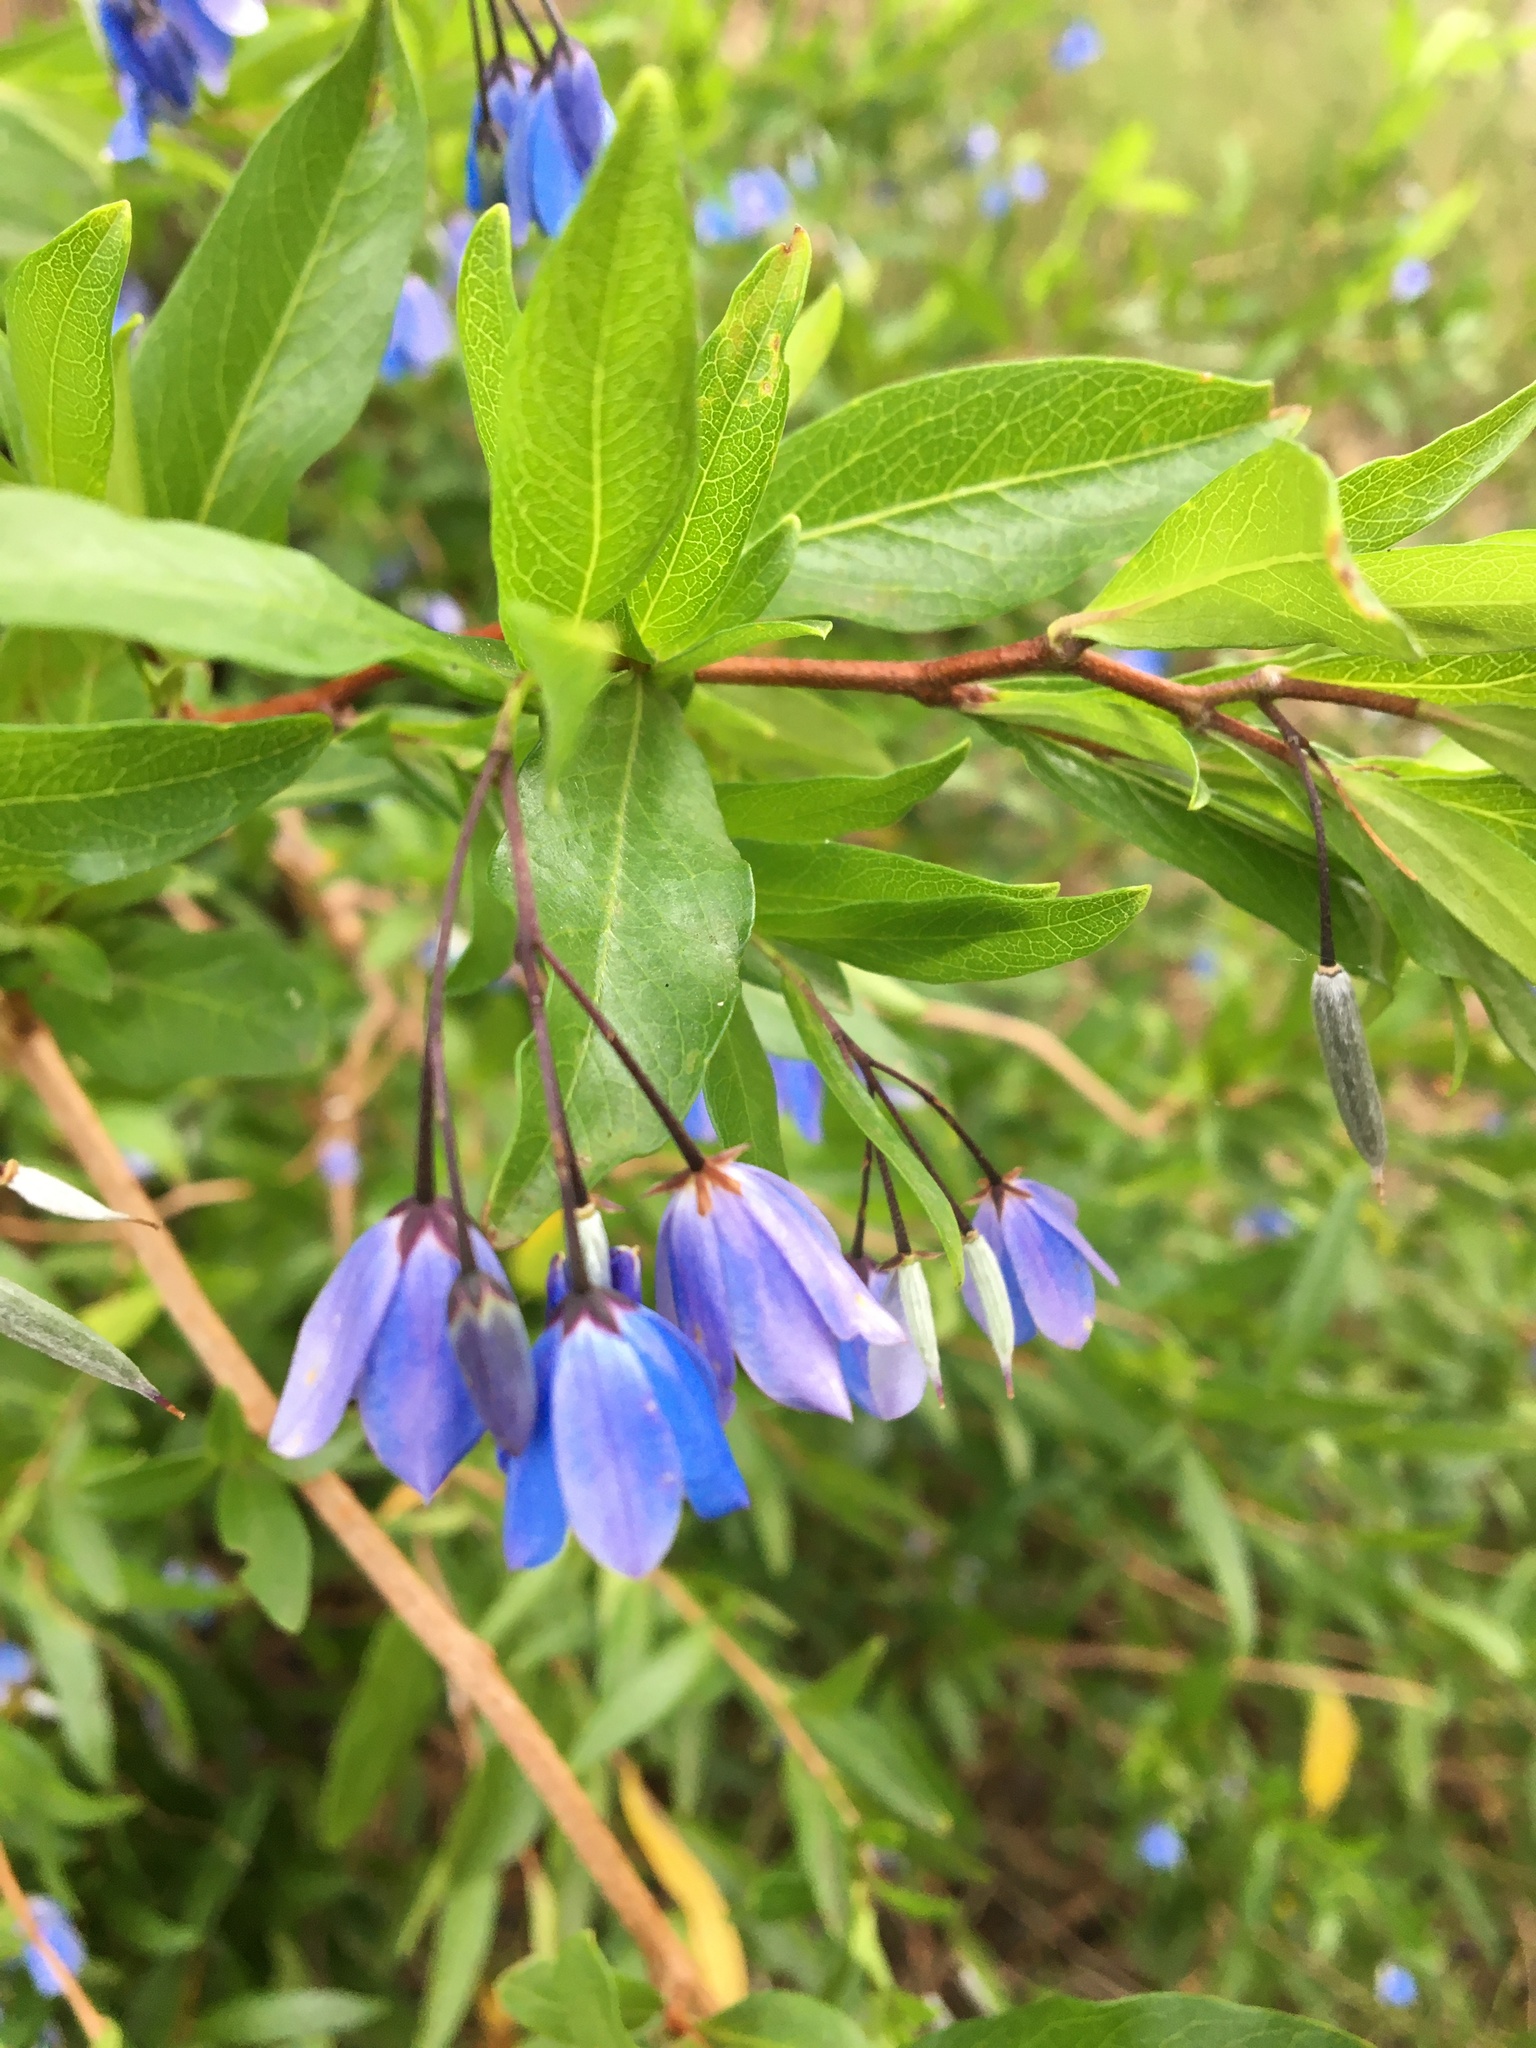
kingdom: Plantae
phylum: Tracheophyta
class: Magnoliopsida
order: Apiales
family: Pittosporaceae
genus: Billardiera
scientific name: Billardiera fusiformis
